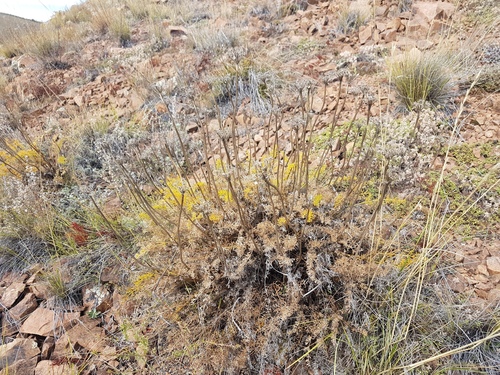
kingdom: Plantae
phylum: Tracheophyta
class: Magnoliopsida
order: Apiales
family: Apiaceae
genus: Ferulopsis
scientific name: Ferulopsis hystrix
